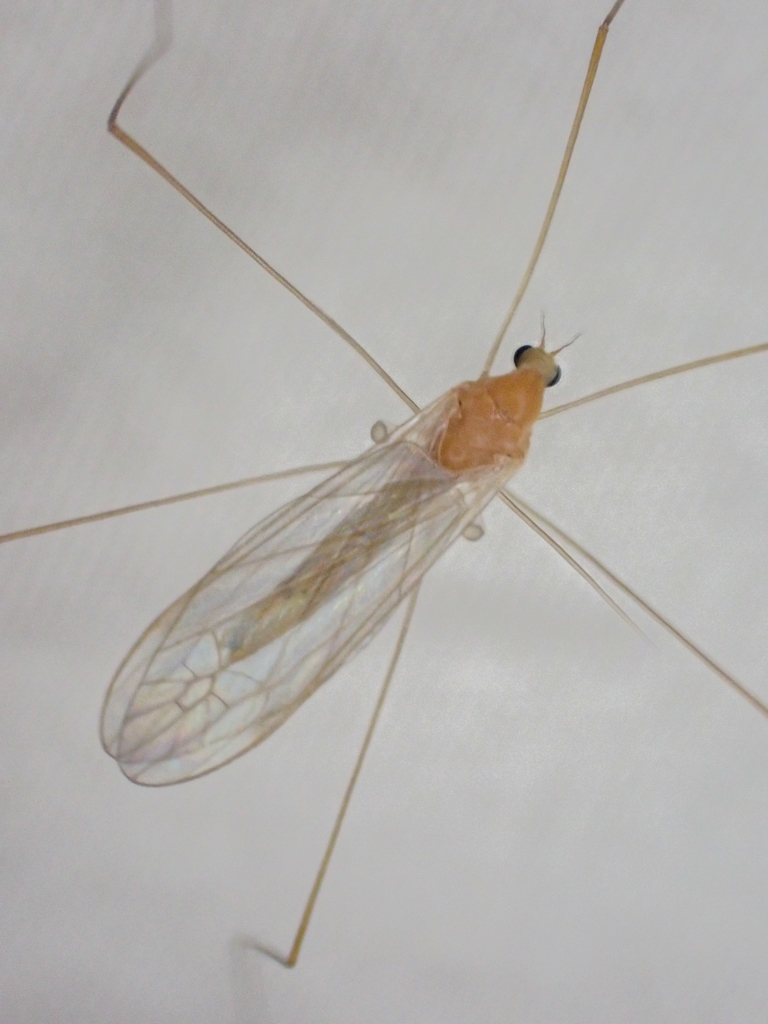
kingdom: Animalia
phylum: Arthropoda
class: Insecta
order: Diptera
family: Limoniidae
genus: Antocha
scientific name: Antocha monticola
